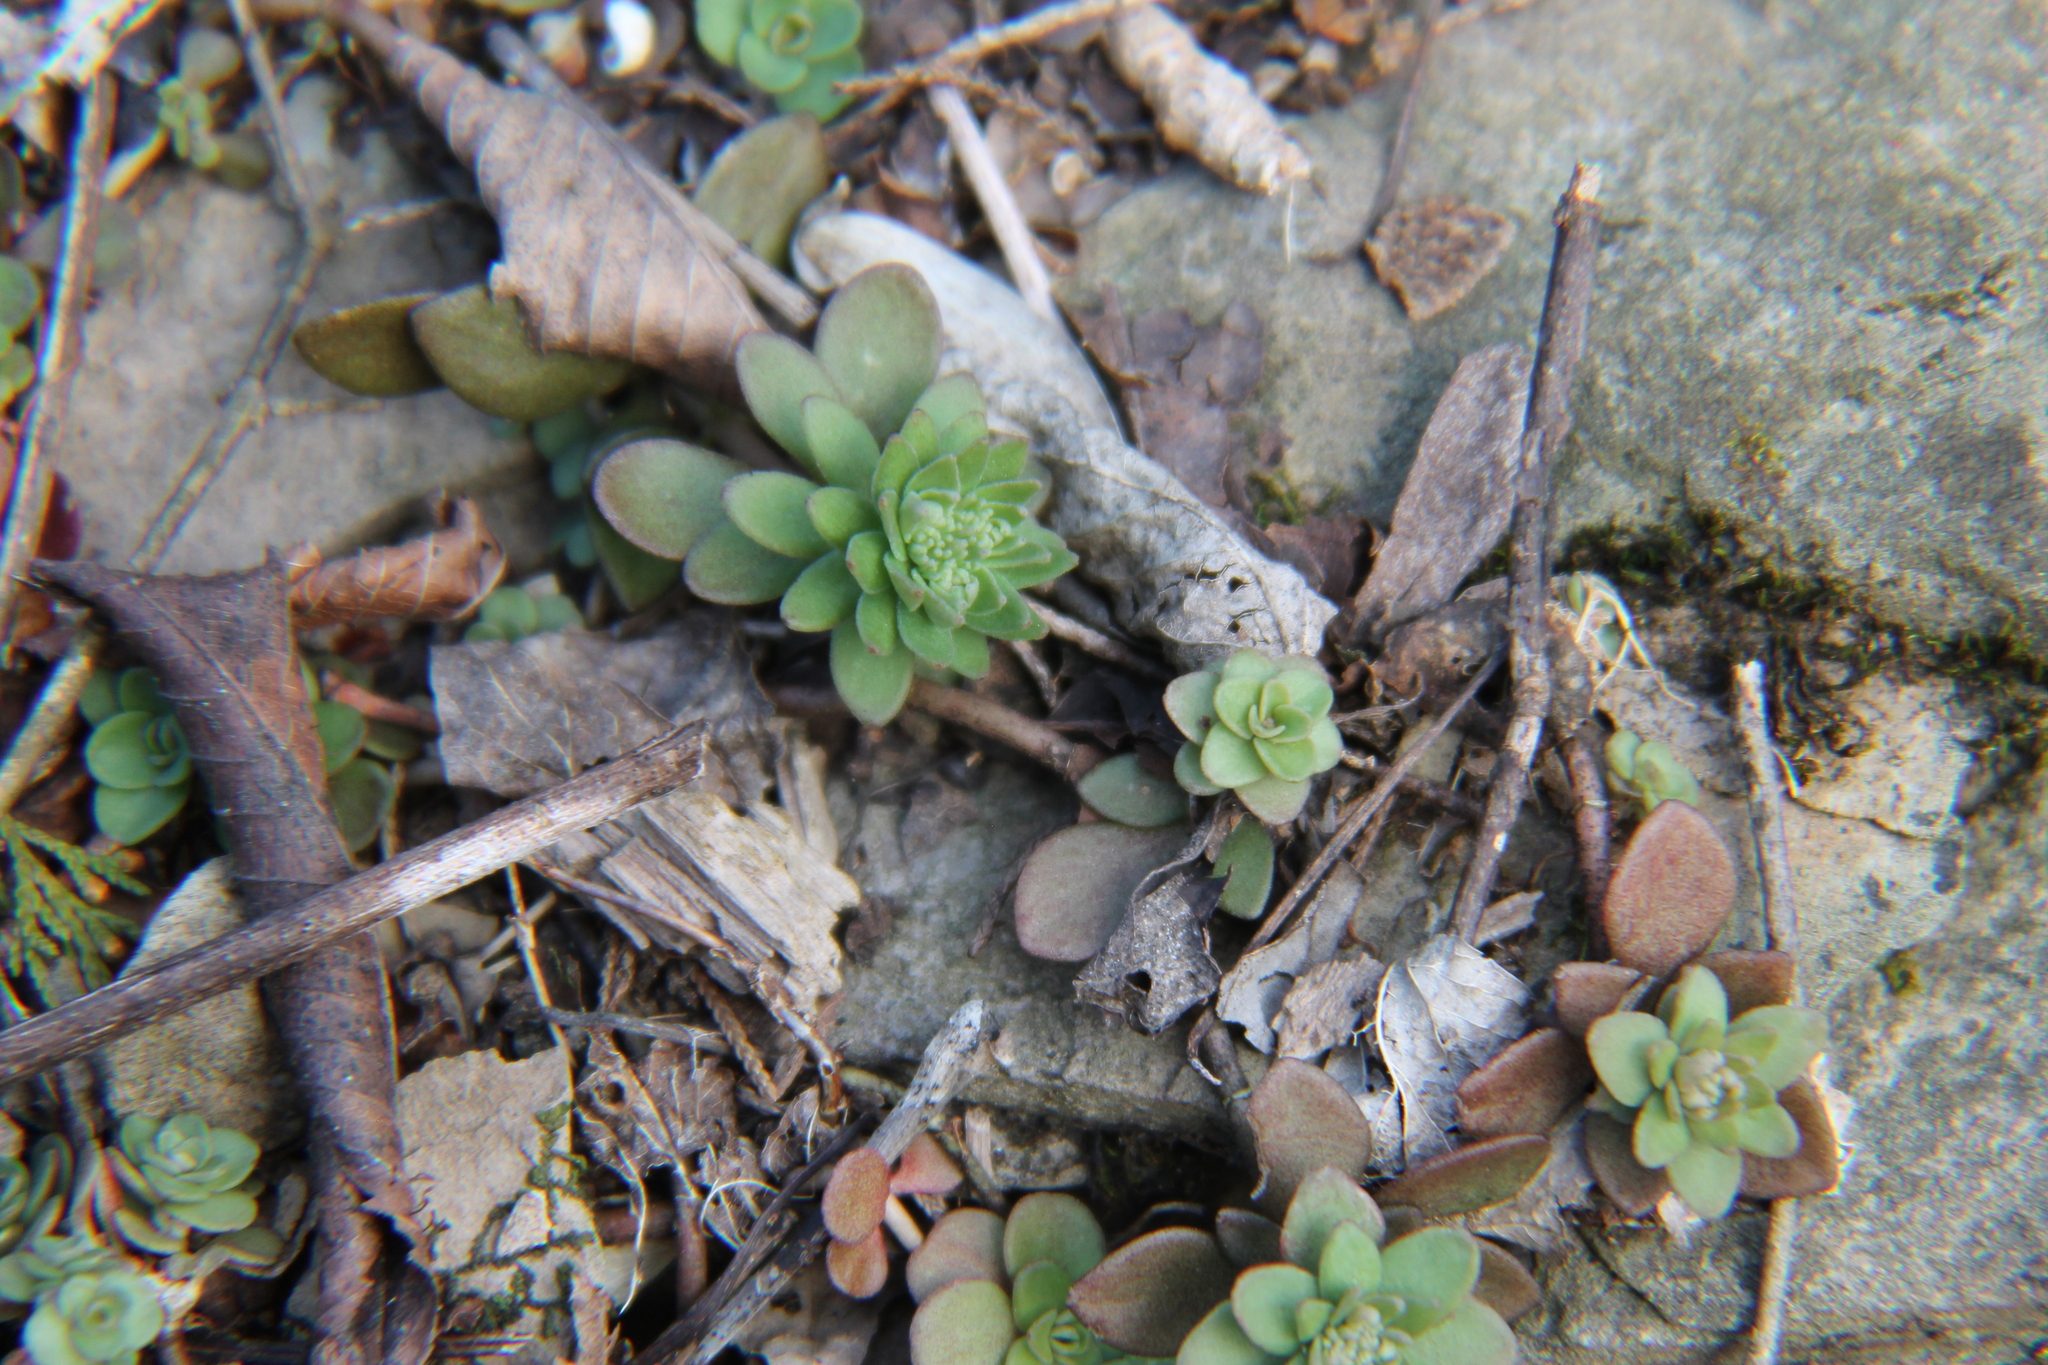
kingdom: Plantae
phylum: Tracheophyta
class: Magnoliopsida
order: Saxifragales
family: Crassulaceae
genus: Sedum
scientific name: Sedum ternatum
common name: Wild stonecrop
